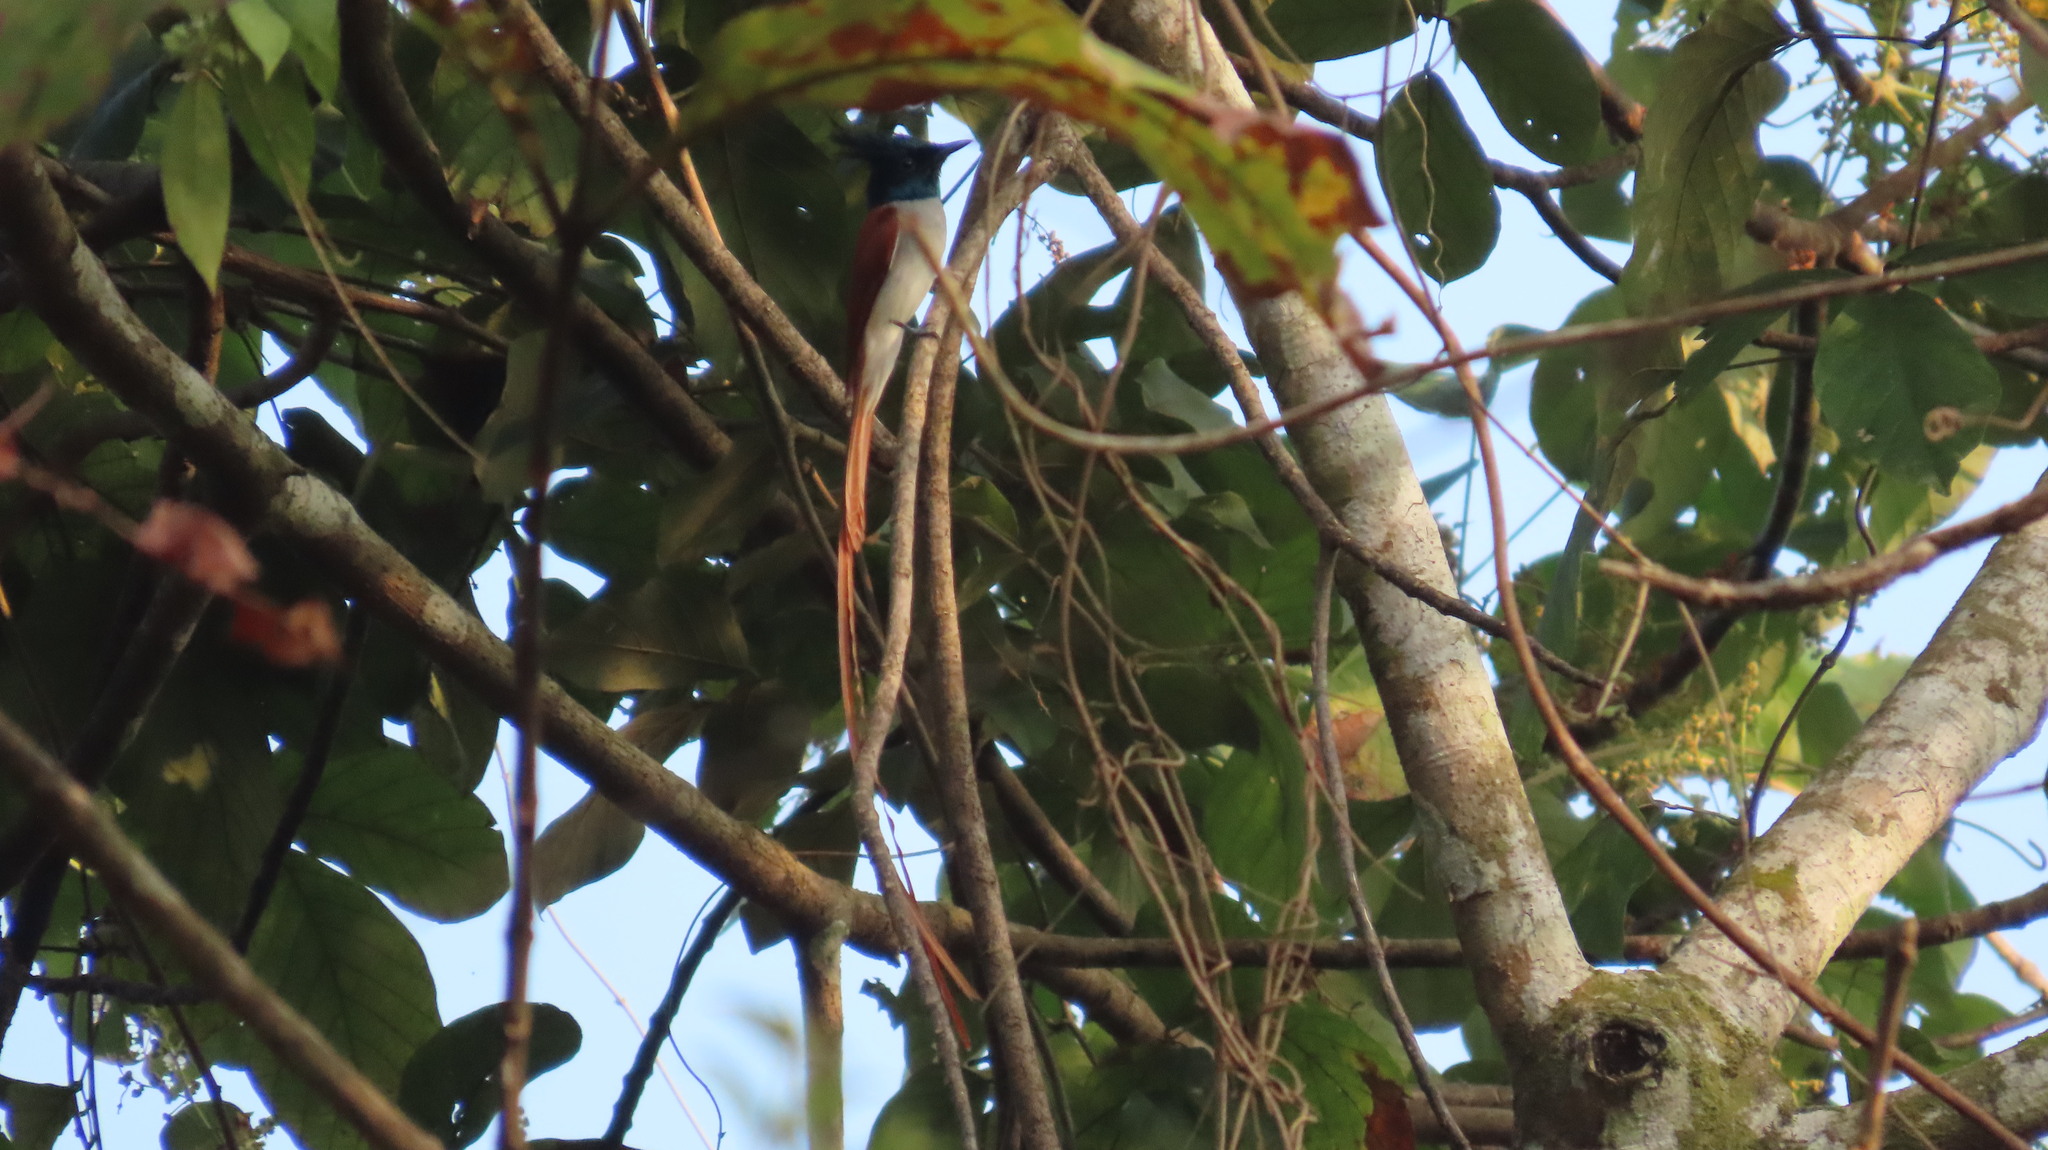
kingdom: Animalia
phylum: Chordata
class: Aves
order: Passeriformes
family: Monarchidae
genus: Terpsiphone
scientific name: Terpsiphone paradisi
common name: Indian paradise flycatcher
